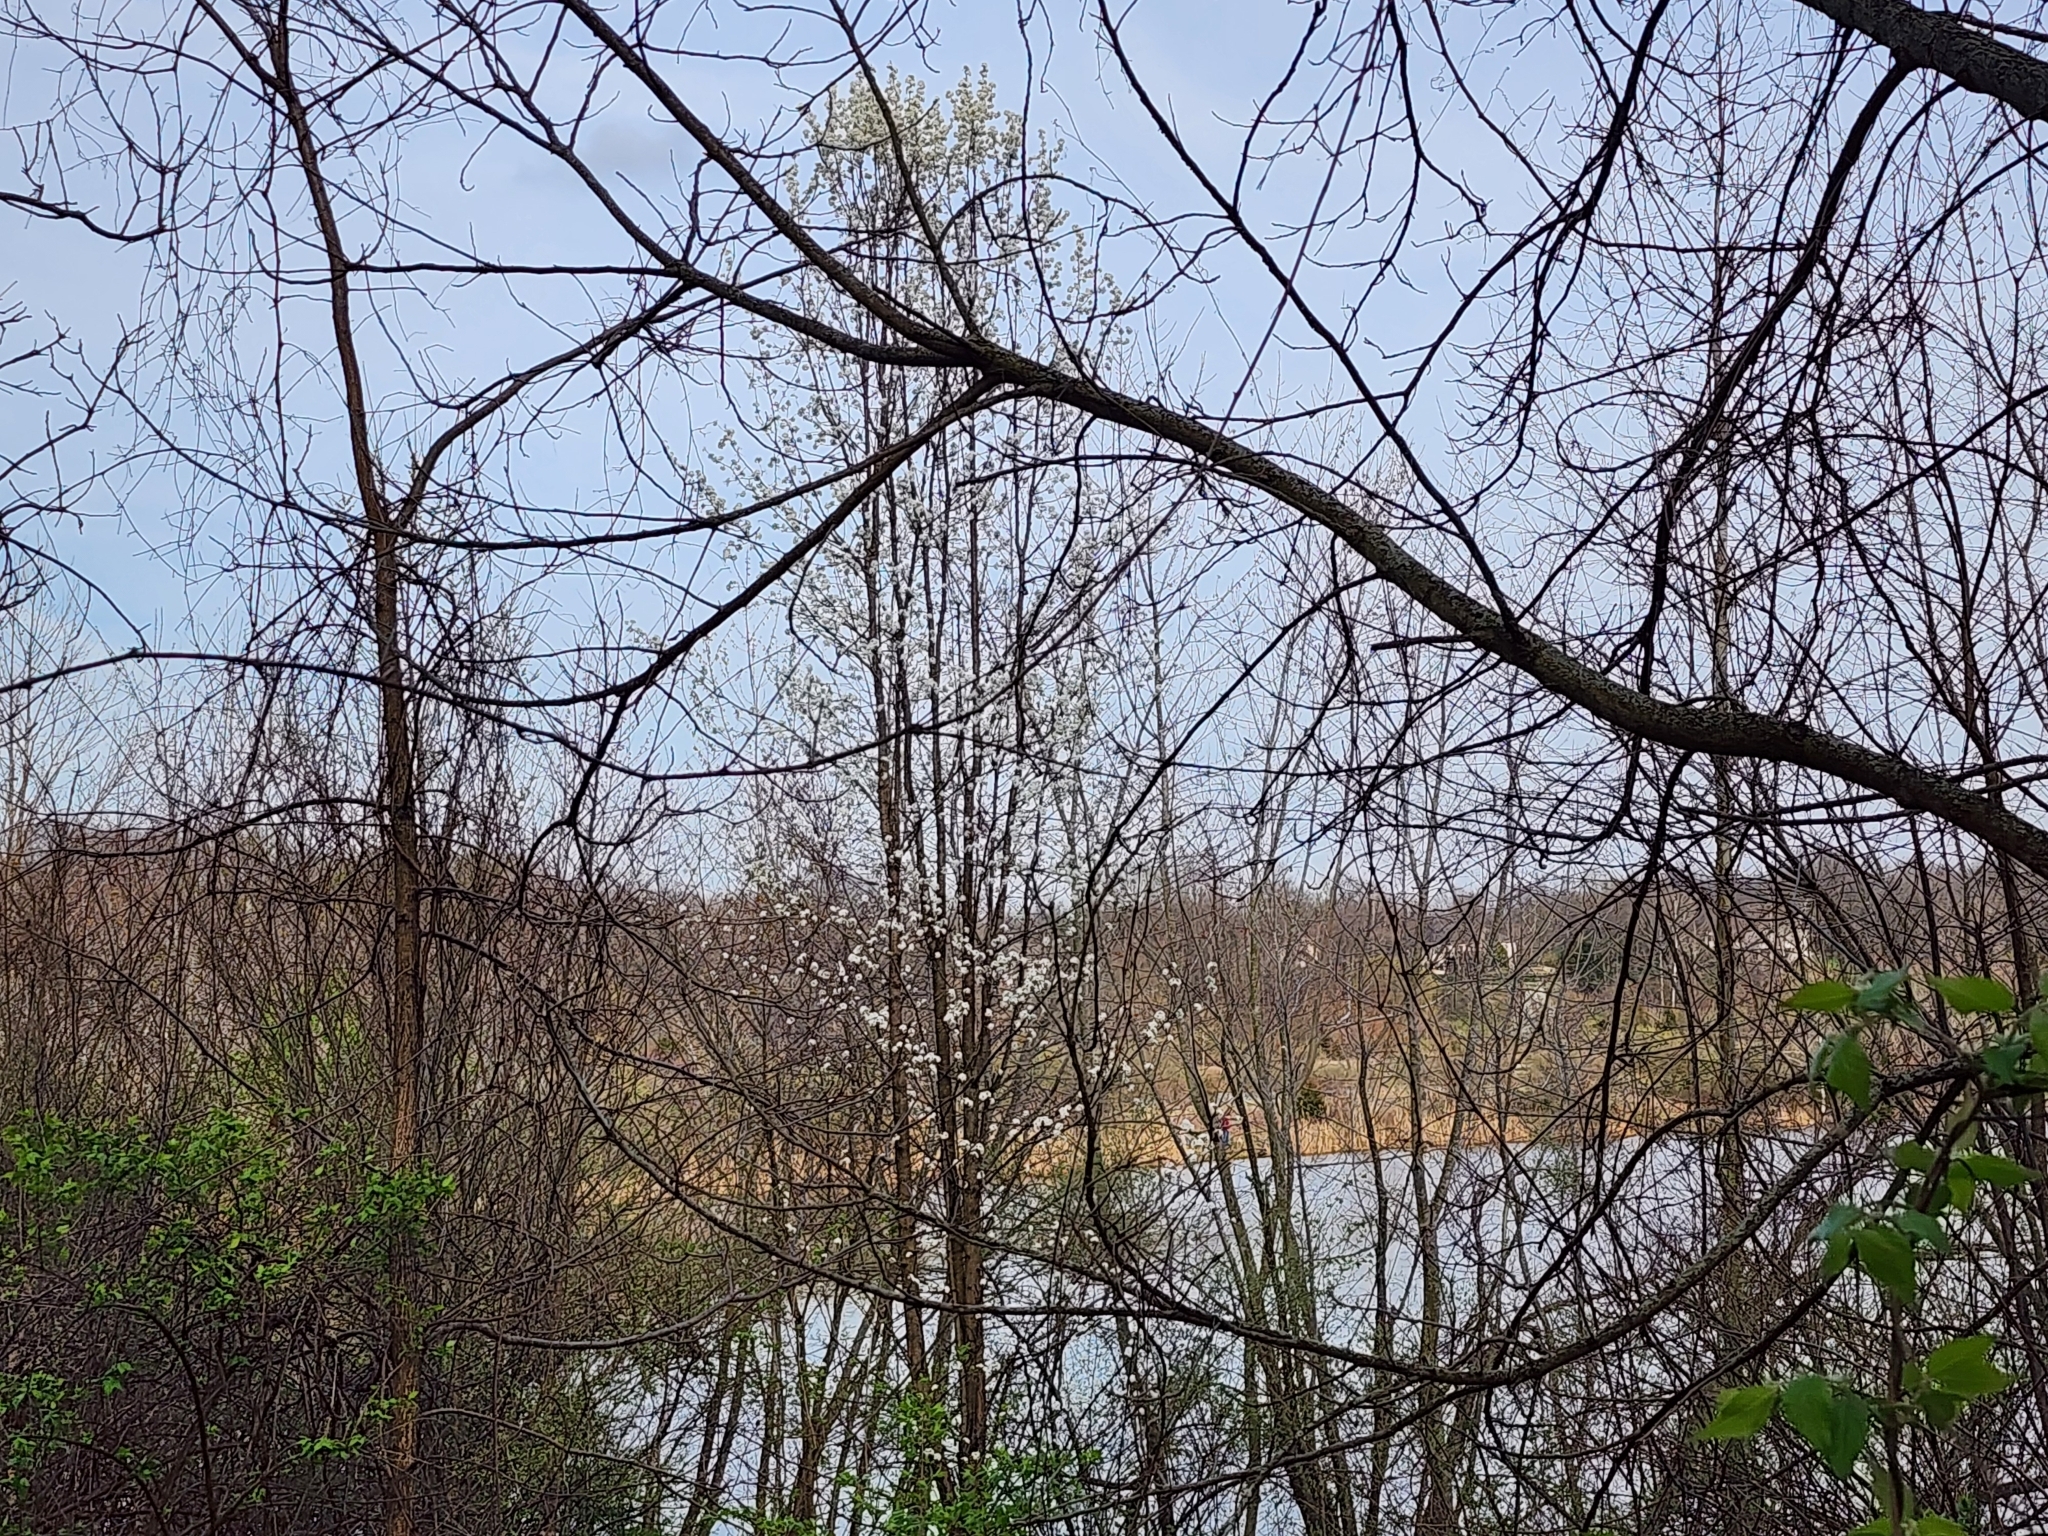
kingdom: Plantae
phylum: Tracheophyta
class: Magnoliopsida
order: Rosales
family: Rosaceae
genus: Pyrus
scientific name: Pyrus calleryana
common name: Callery pear
